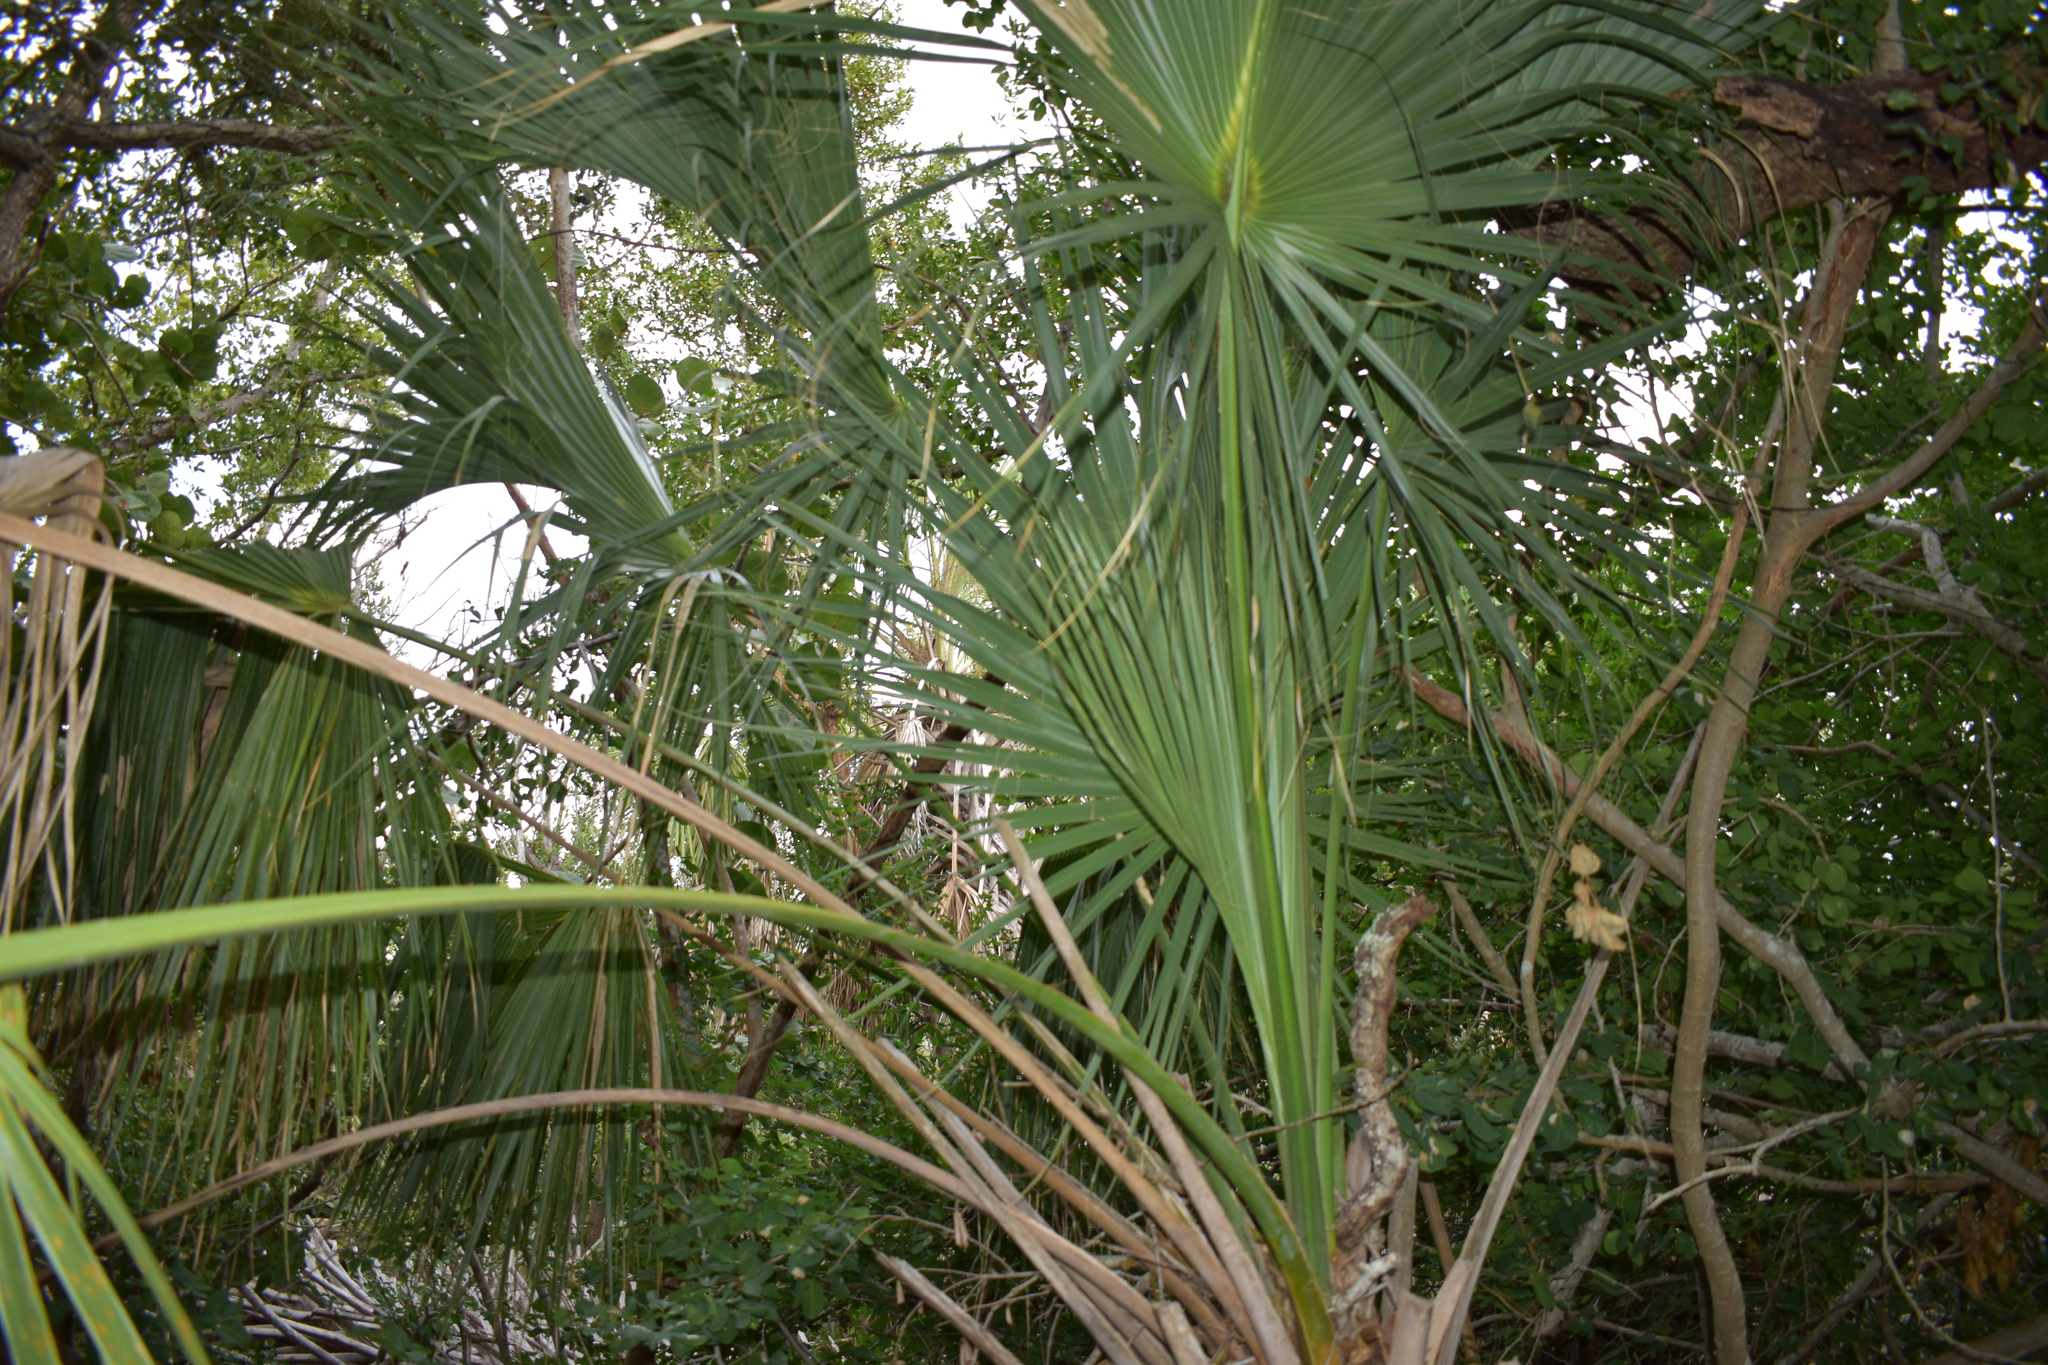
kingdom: Plantae
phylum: Tracheophyta
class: Liliopsida
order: Arecales
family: Arecaceae
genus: Sabal
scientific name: Sabal palmetto
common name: Blue palmetto
